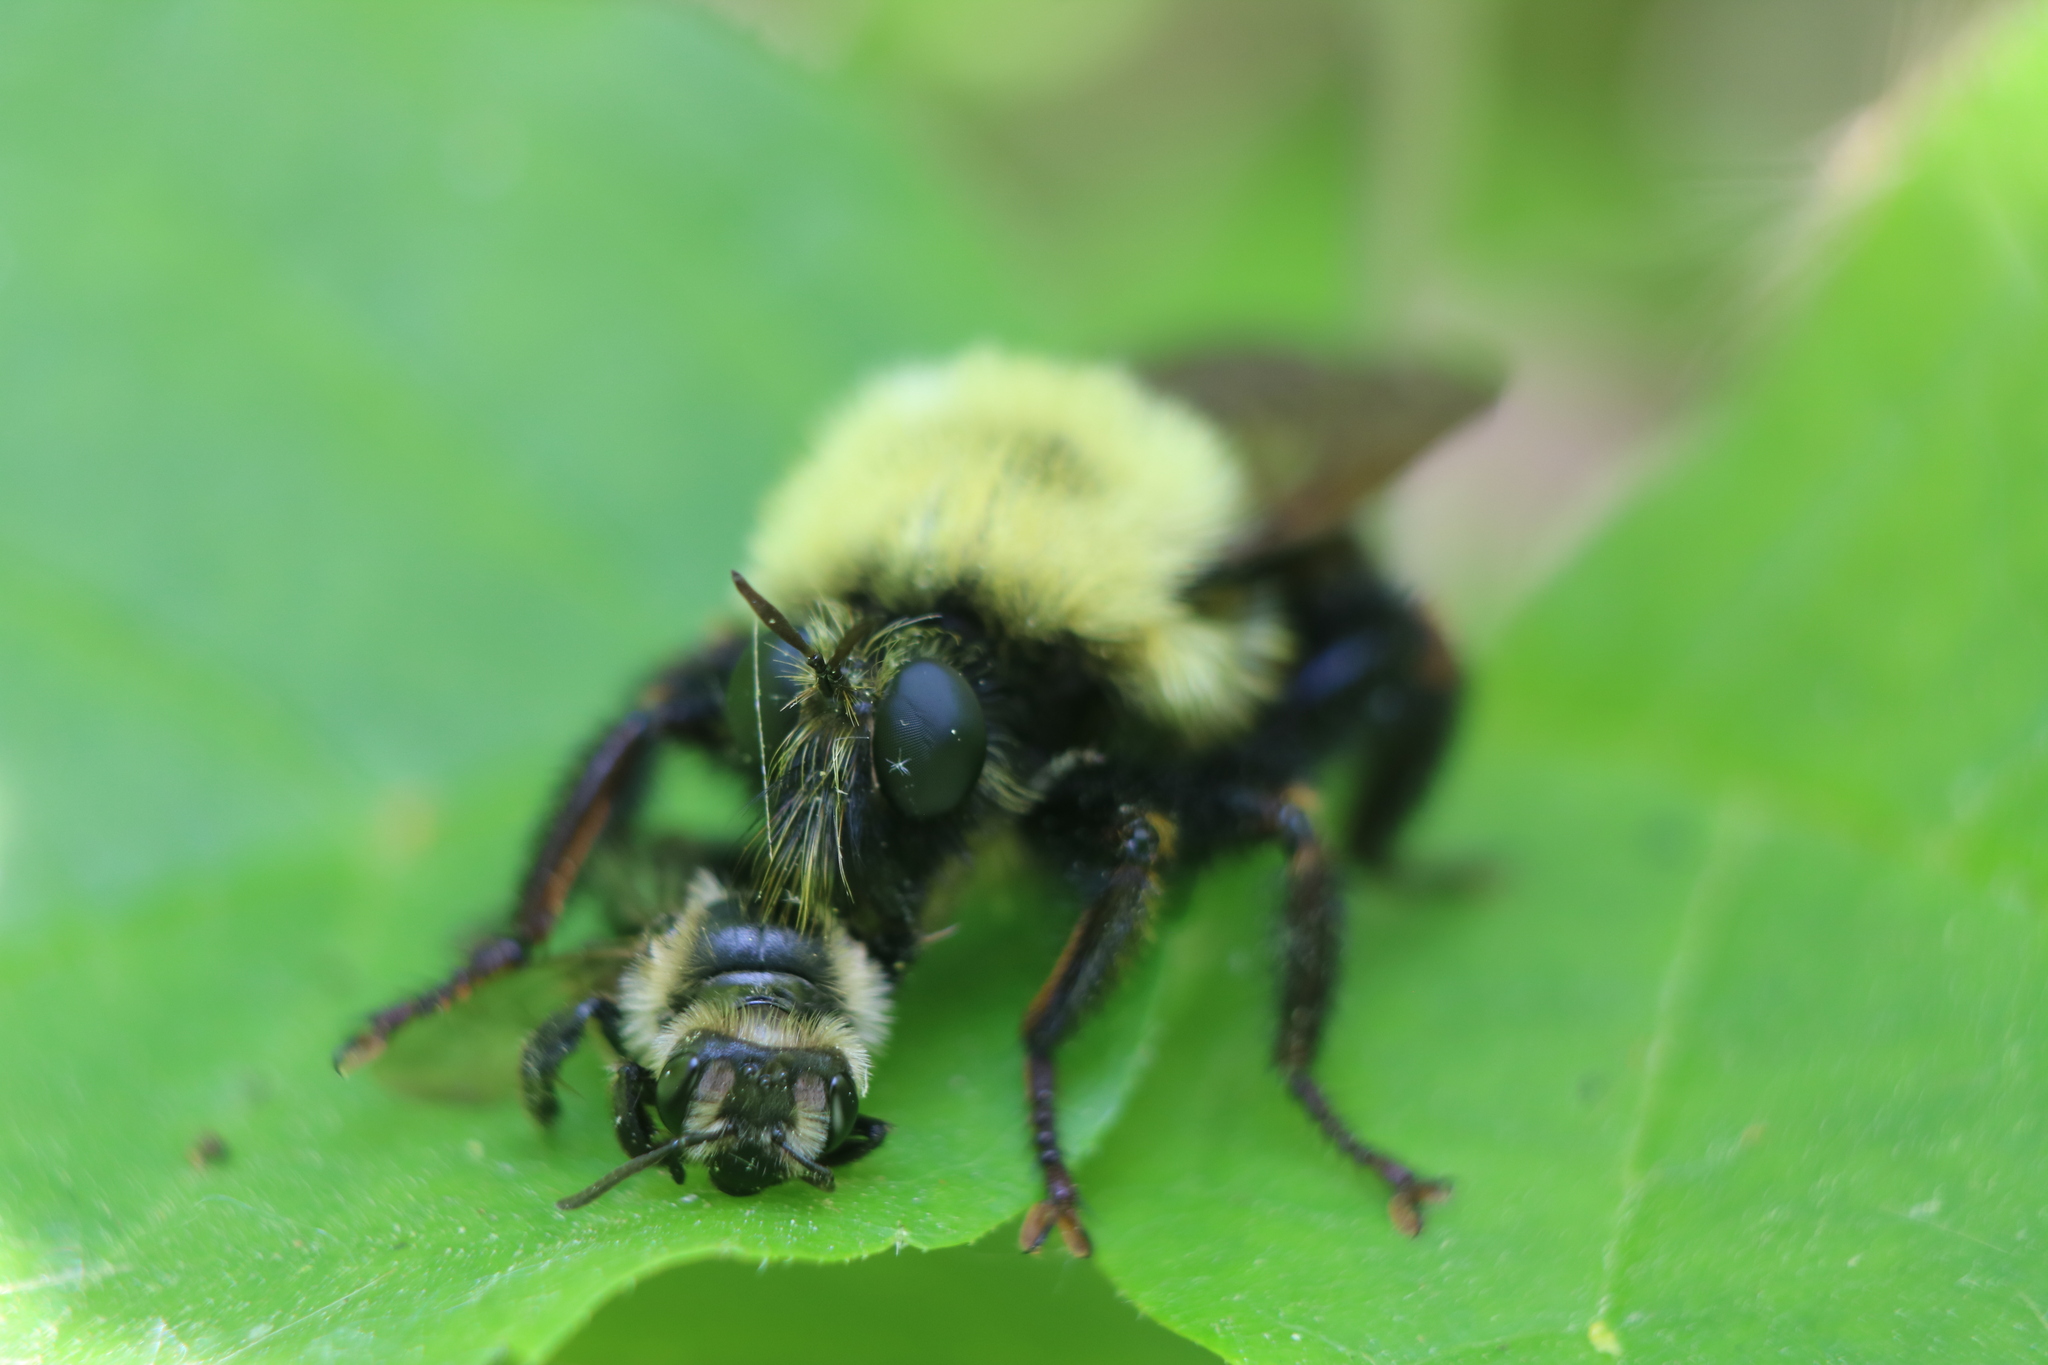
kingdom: Animalia
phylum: Arthropoda
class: Insecta
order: Diptera
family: Asilidae
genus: Laphria
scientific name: Laphria thoracica
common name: Bumble bee mimic robber fly
